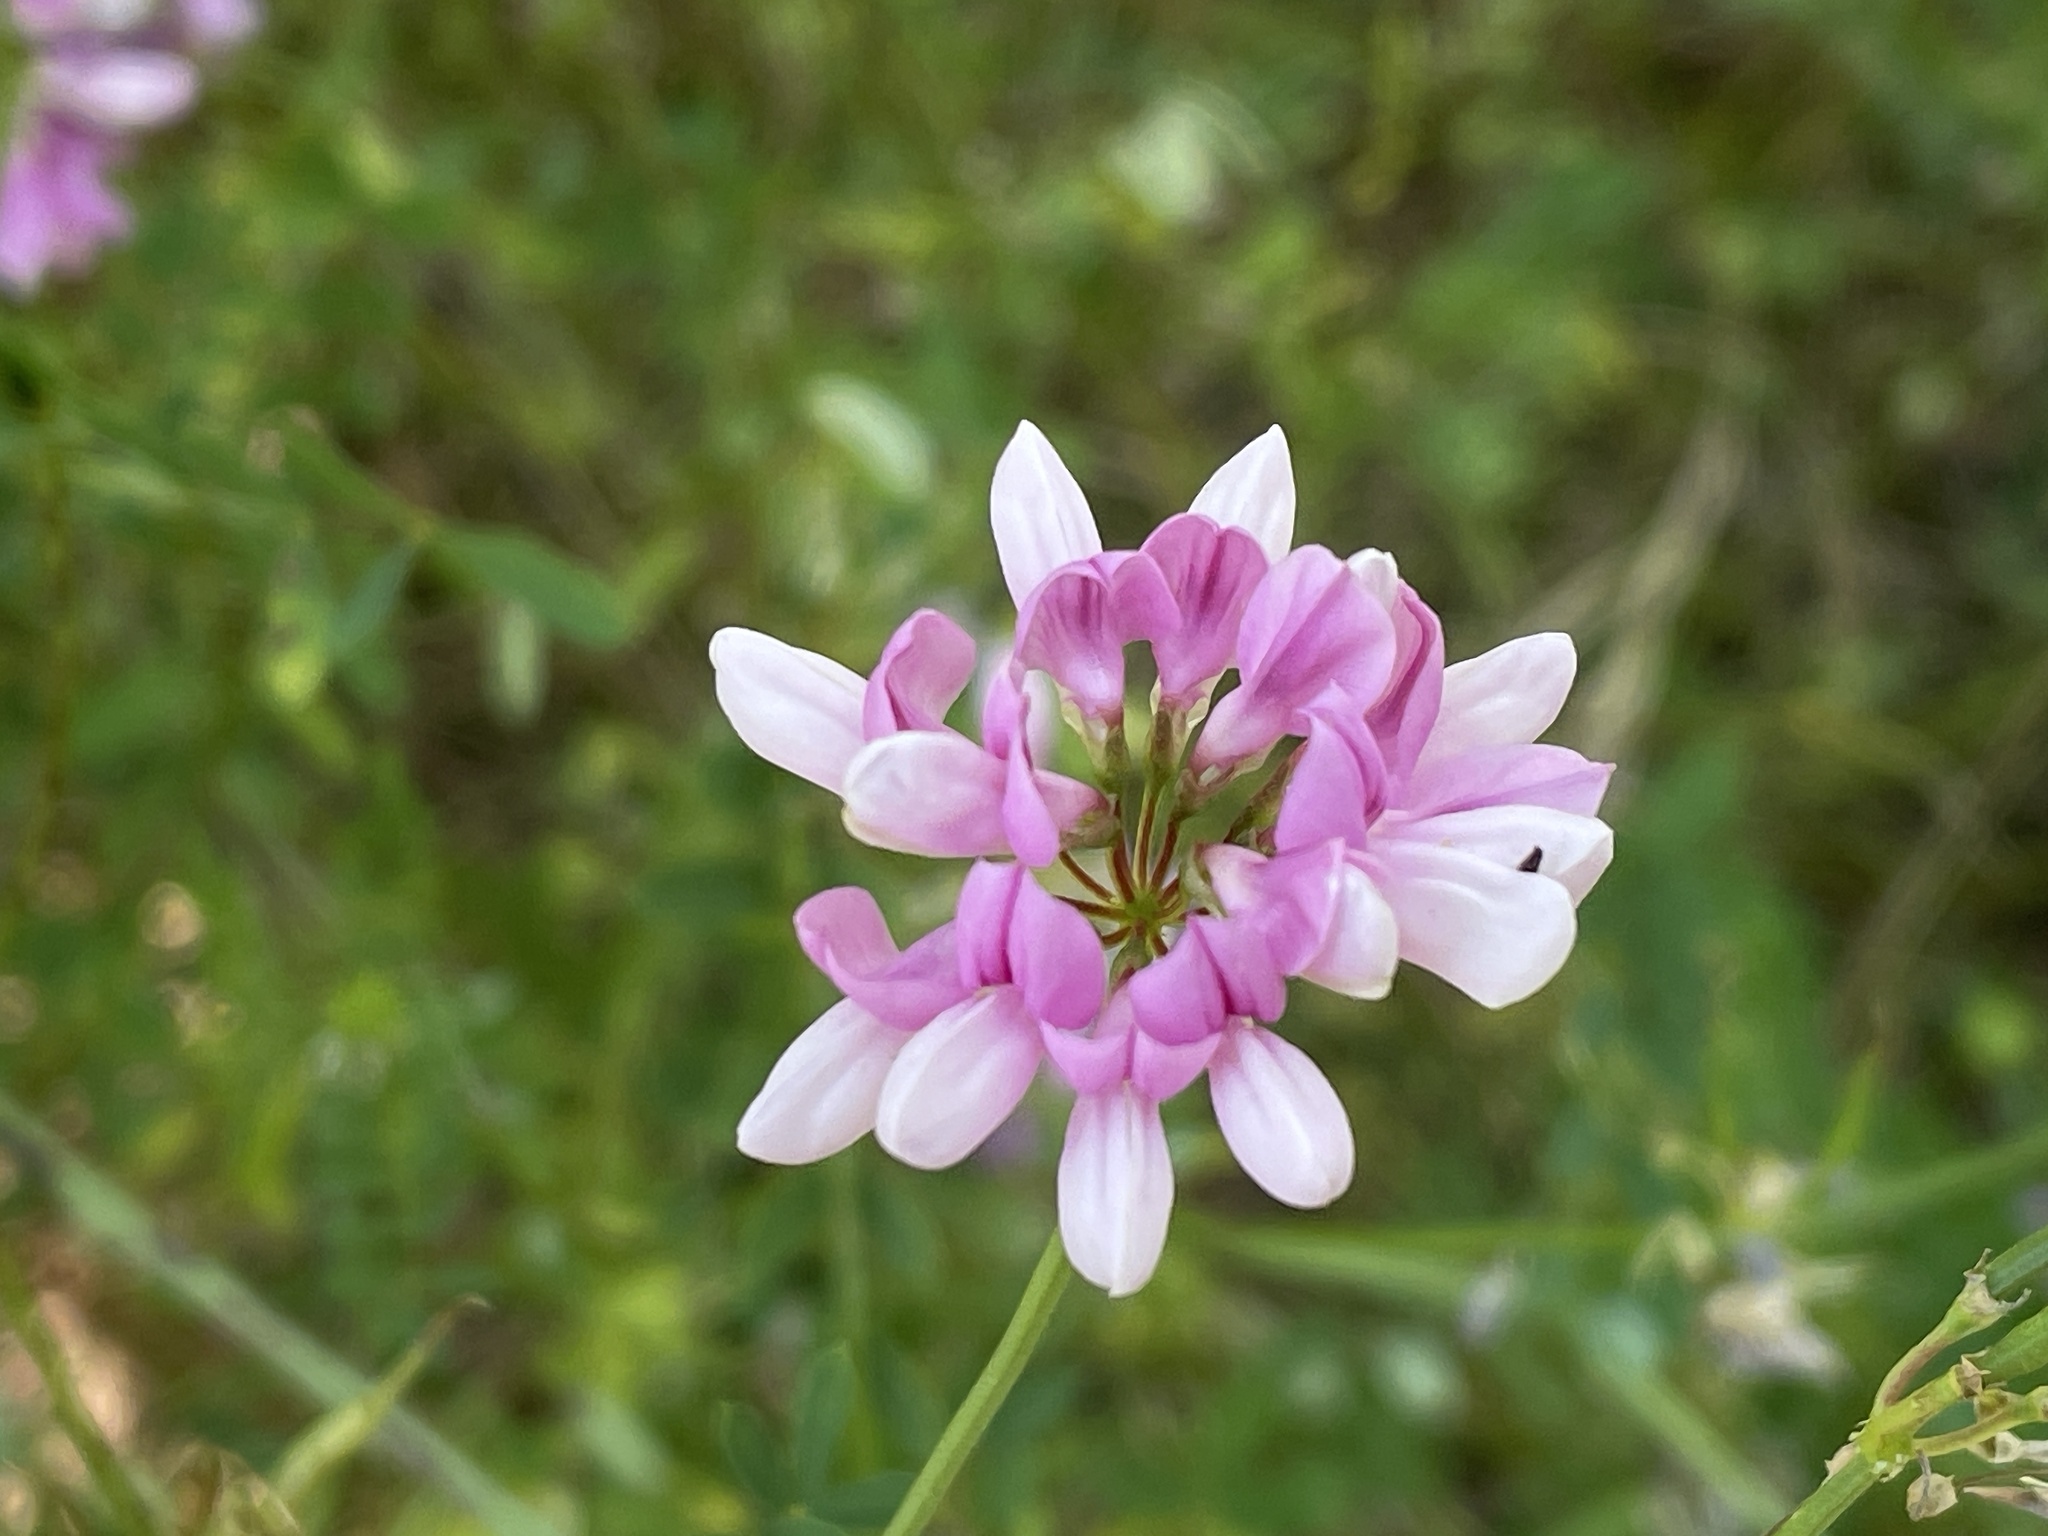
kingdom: Plantae
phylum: Tracheophyta
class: Magnoliopsida
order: Fabales
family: Fabaceae
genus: Coronilla
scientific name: Coronilla varia
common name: Crownvetch
